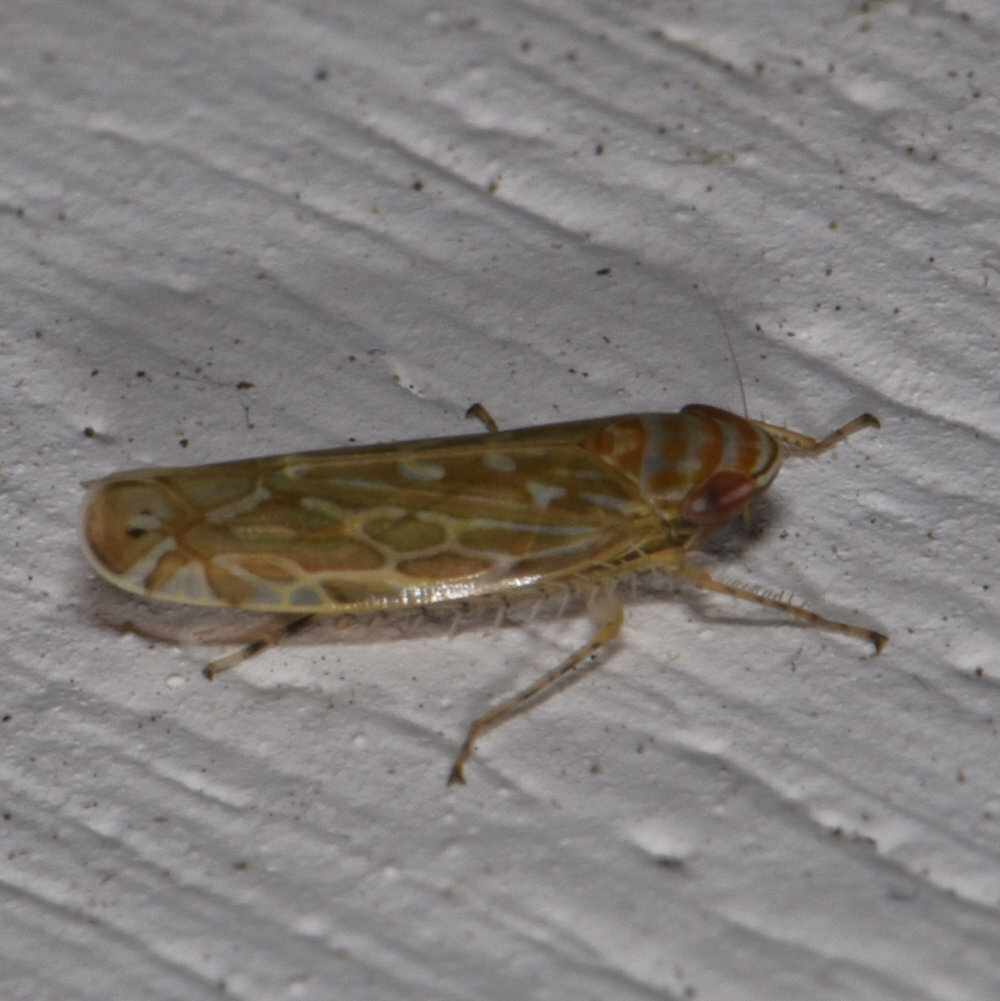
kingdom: Animalia
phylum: Arthropoda
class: Insecta
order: Hemiptera
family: Cicadellidae
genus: Paralimnus
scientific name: Paralimnus phragmitis
